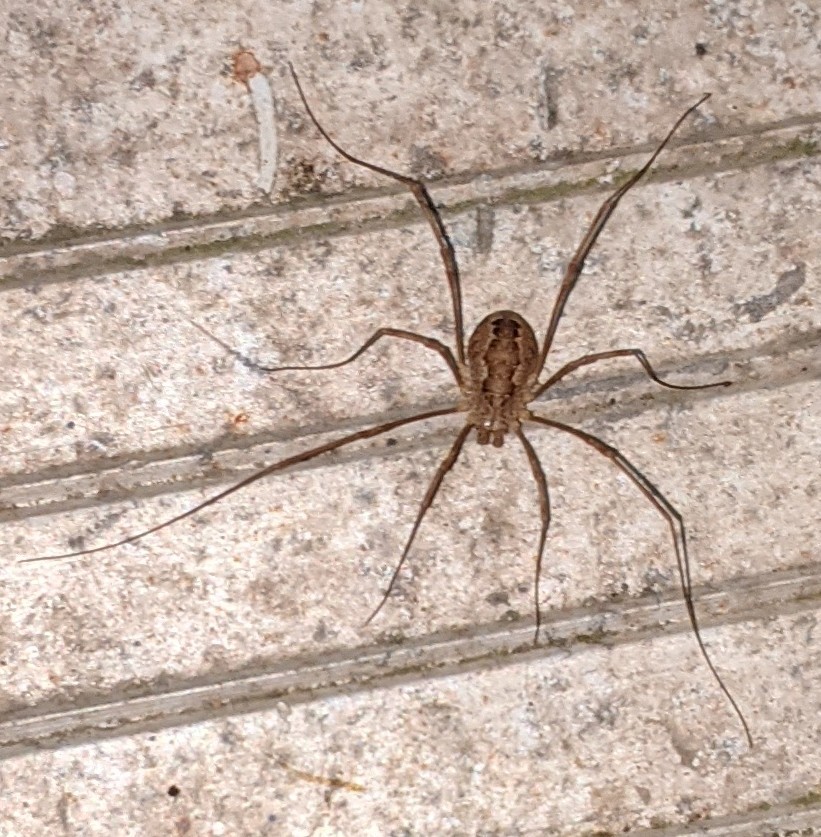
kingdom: Animalia
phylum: Arthropoda
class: Arachnida
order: Opiliones
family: Phalangiidae
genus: Rilaena
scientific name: Rilaena triangularis
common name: Spring harvestman
